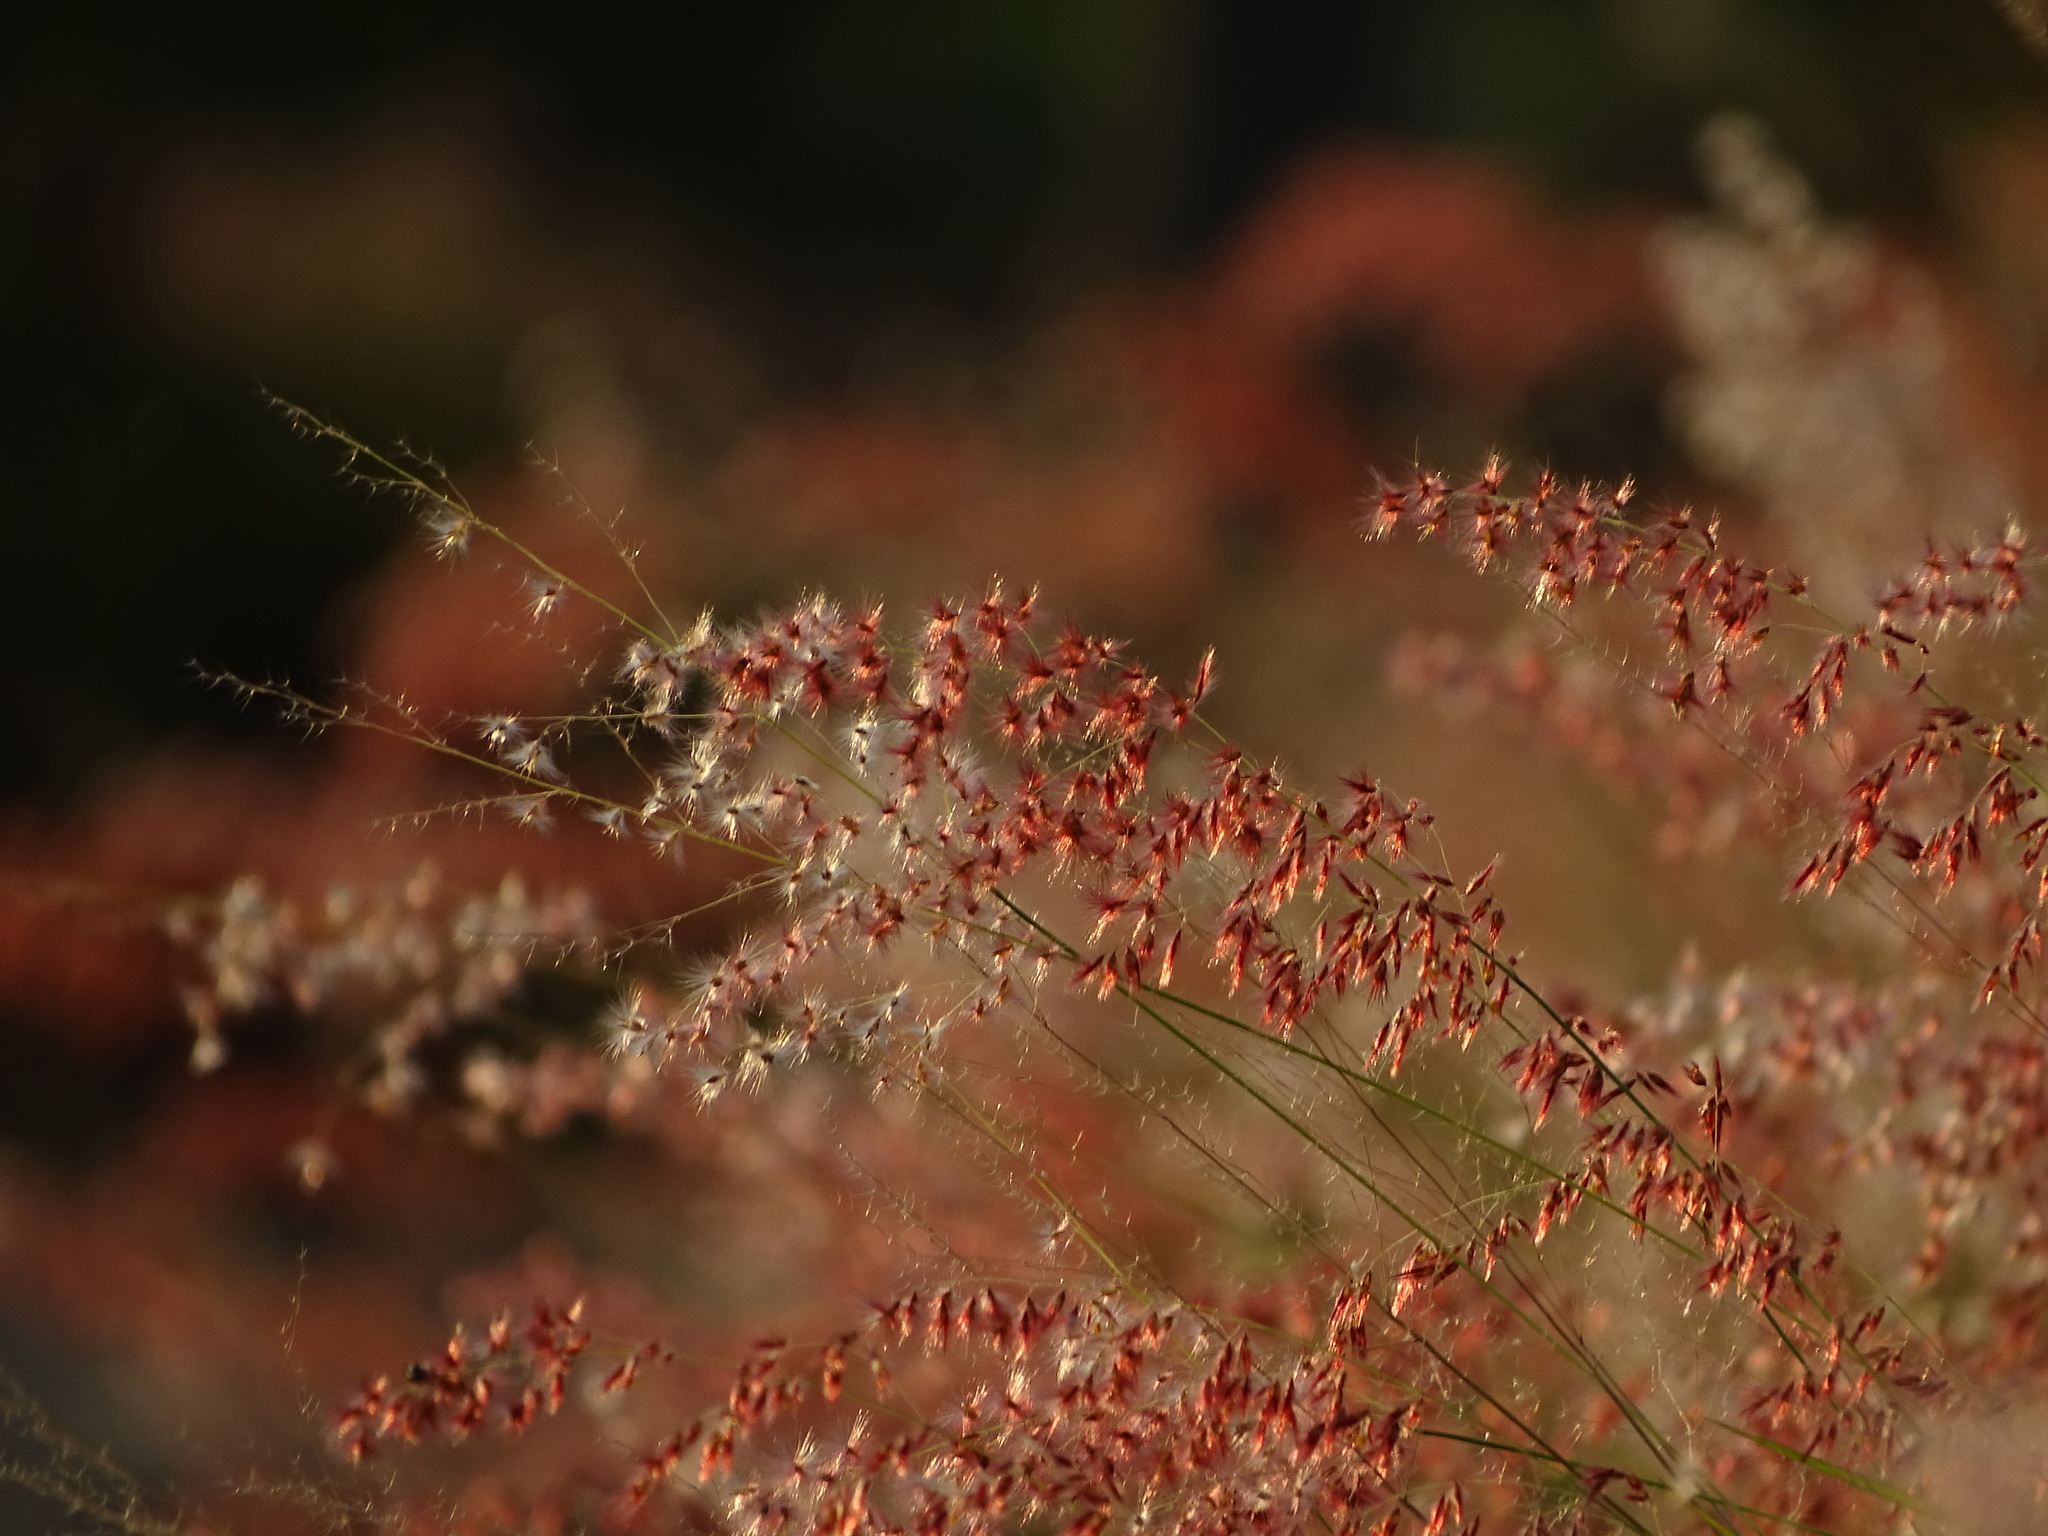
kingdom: Plantae
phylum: Tracheophyta
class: Liliopsida
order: Poales
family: Poaceae
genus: Melinis
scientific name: Melinis repens
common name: Rose natal grass
